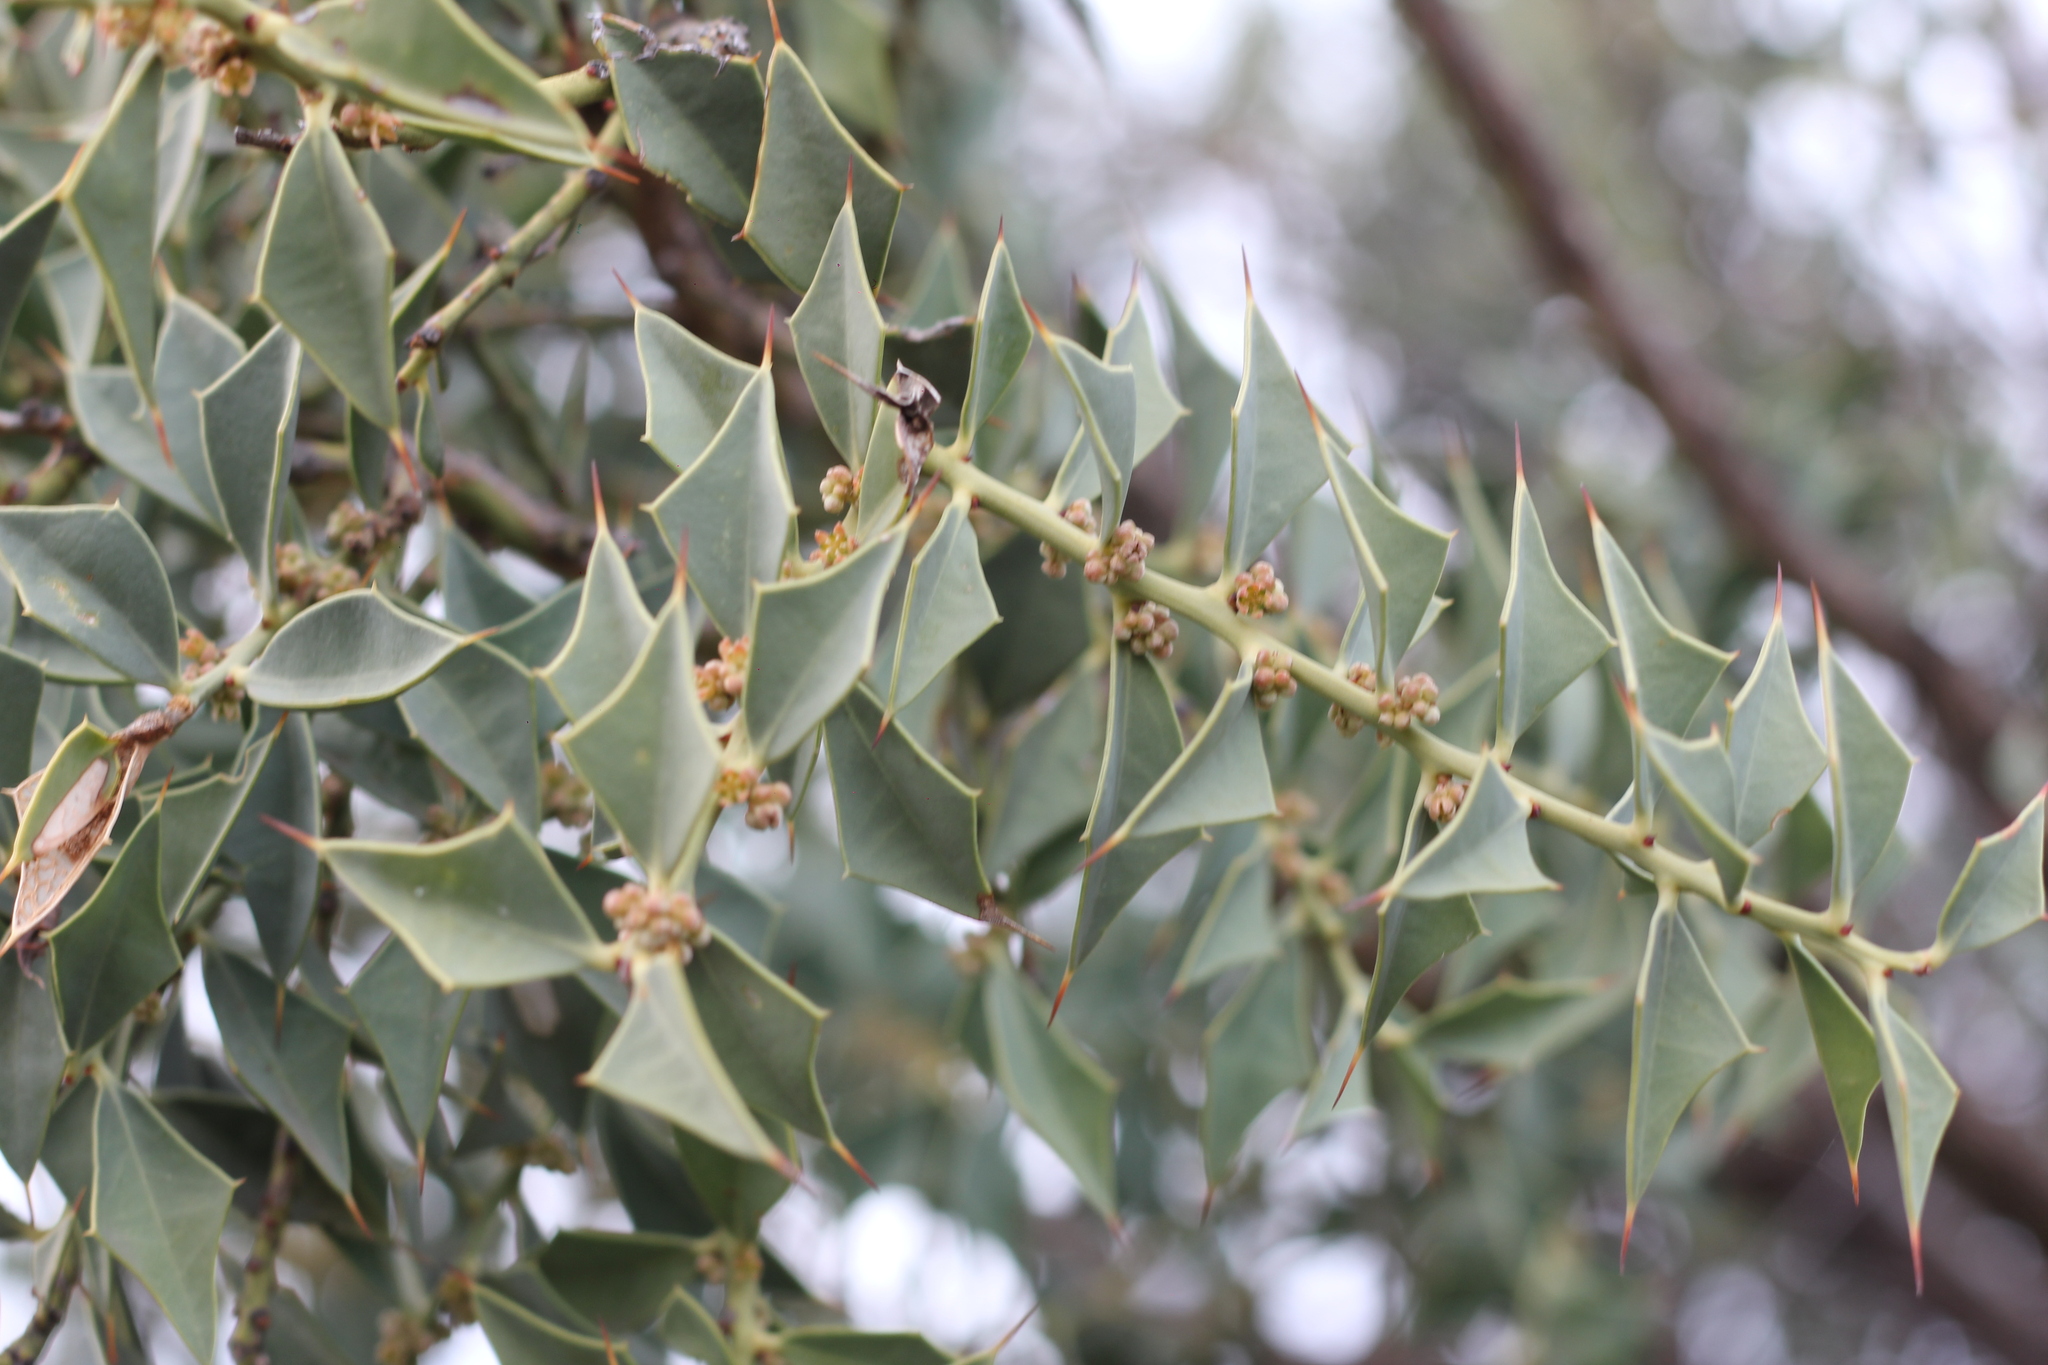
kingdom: Plantae
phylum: Tracheophyta
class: Magnoliopsida
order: Santalales
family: Cervantesiaceae
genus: Jodina
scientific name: Jodina rhombifolia
